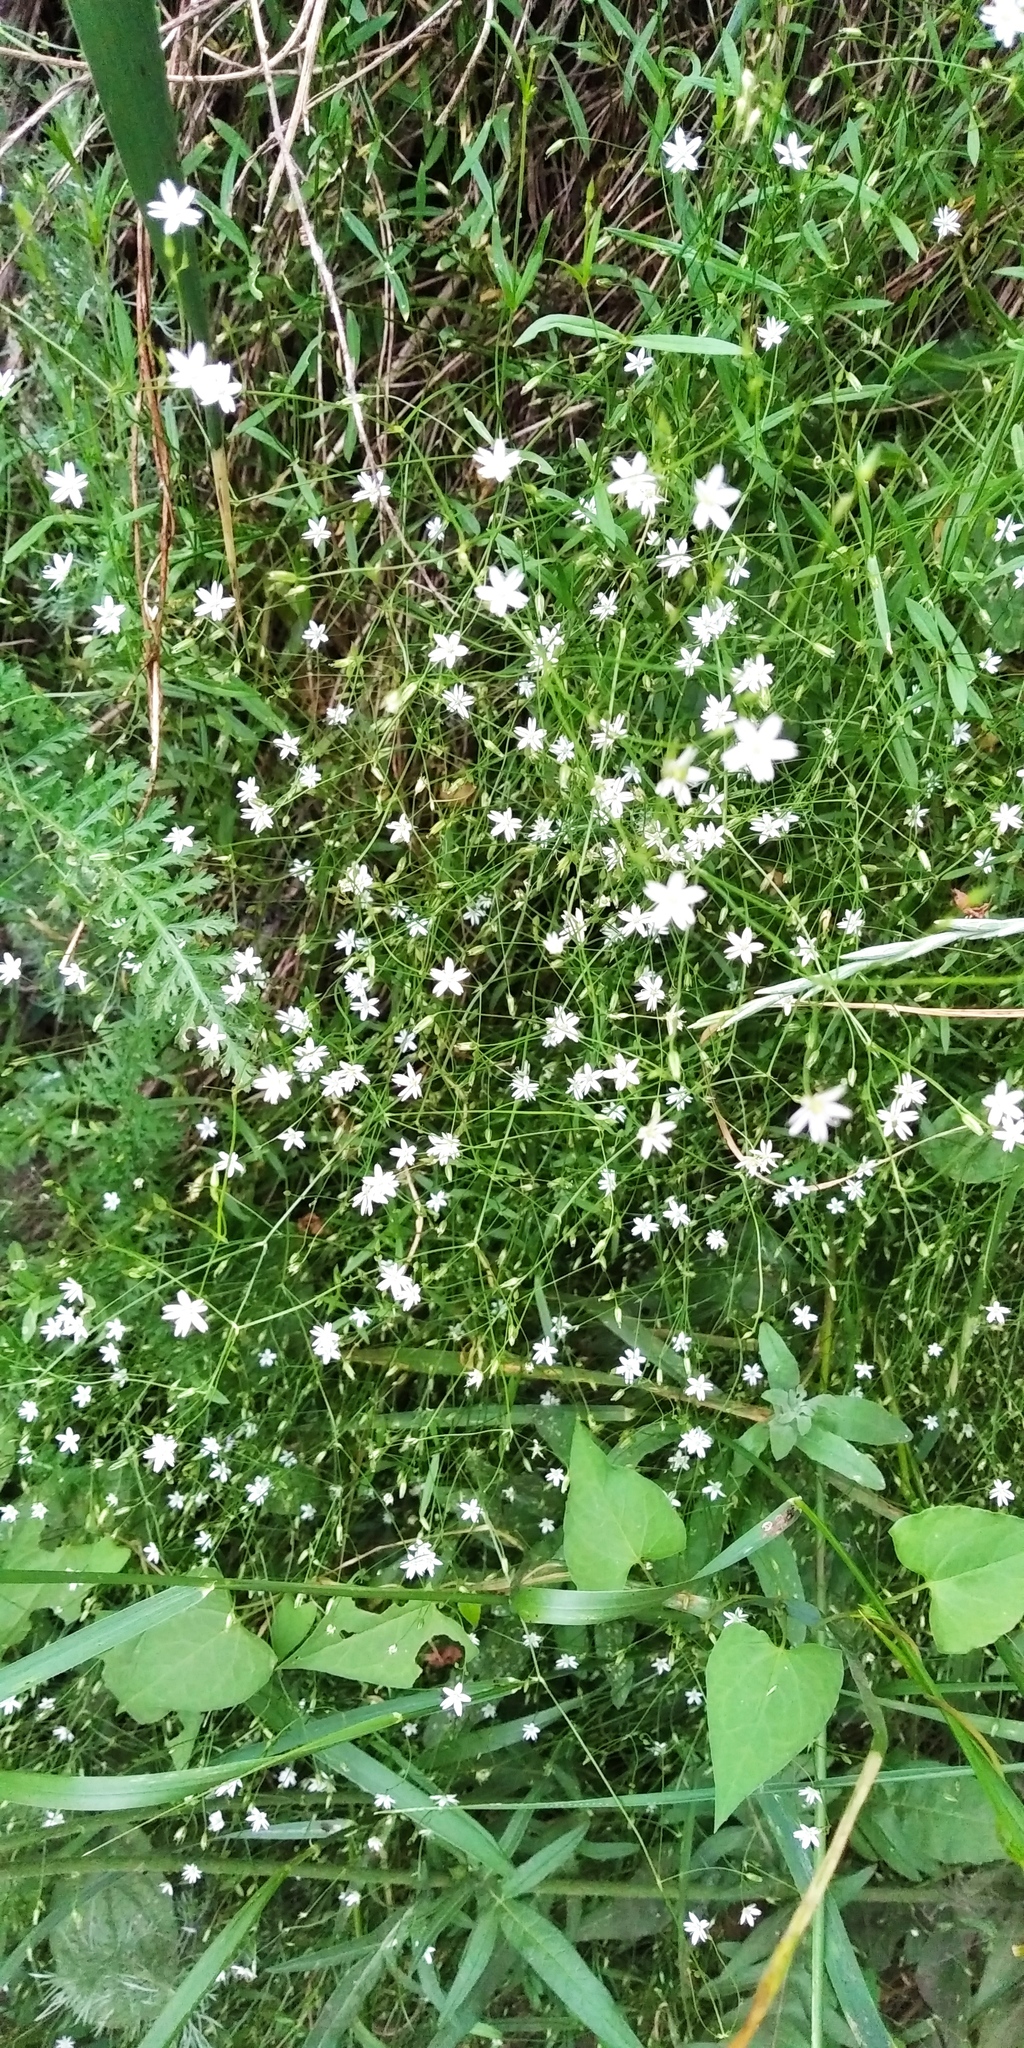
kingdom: Plantae
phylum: Tracheophyta
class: Magnoliopsida
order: Caryophyllales
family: Caryophyllaceae
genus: Stellaria
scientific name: Stellaria graminea
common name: Grass-like starwort
